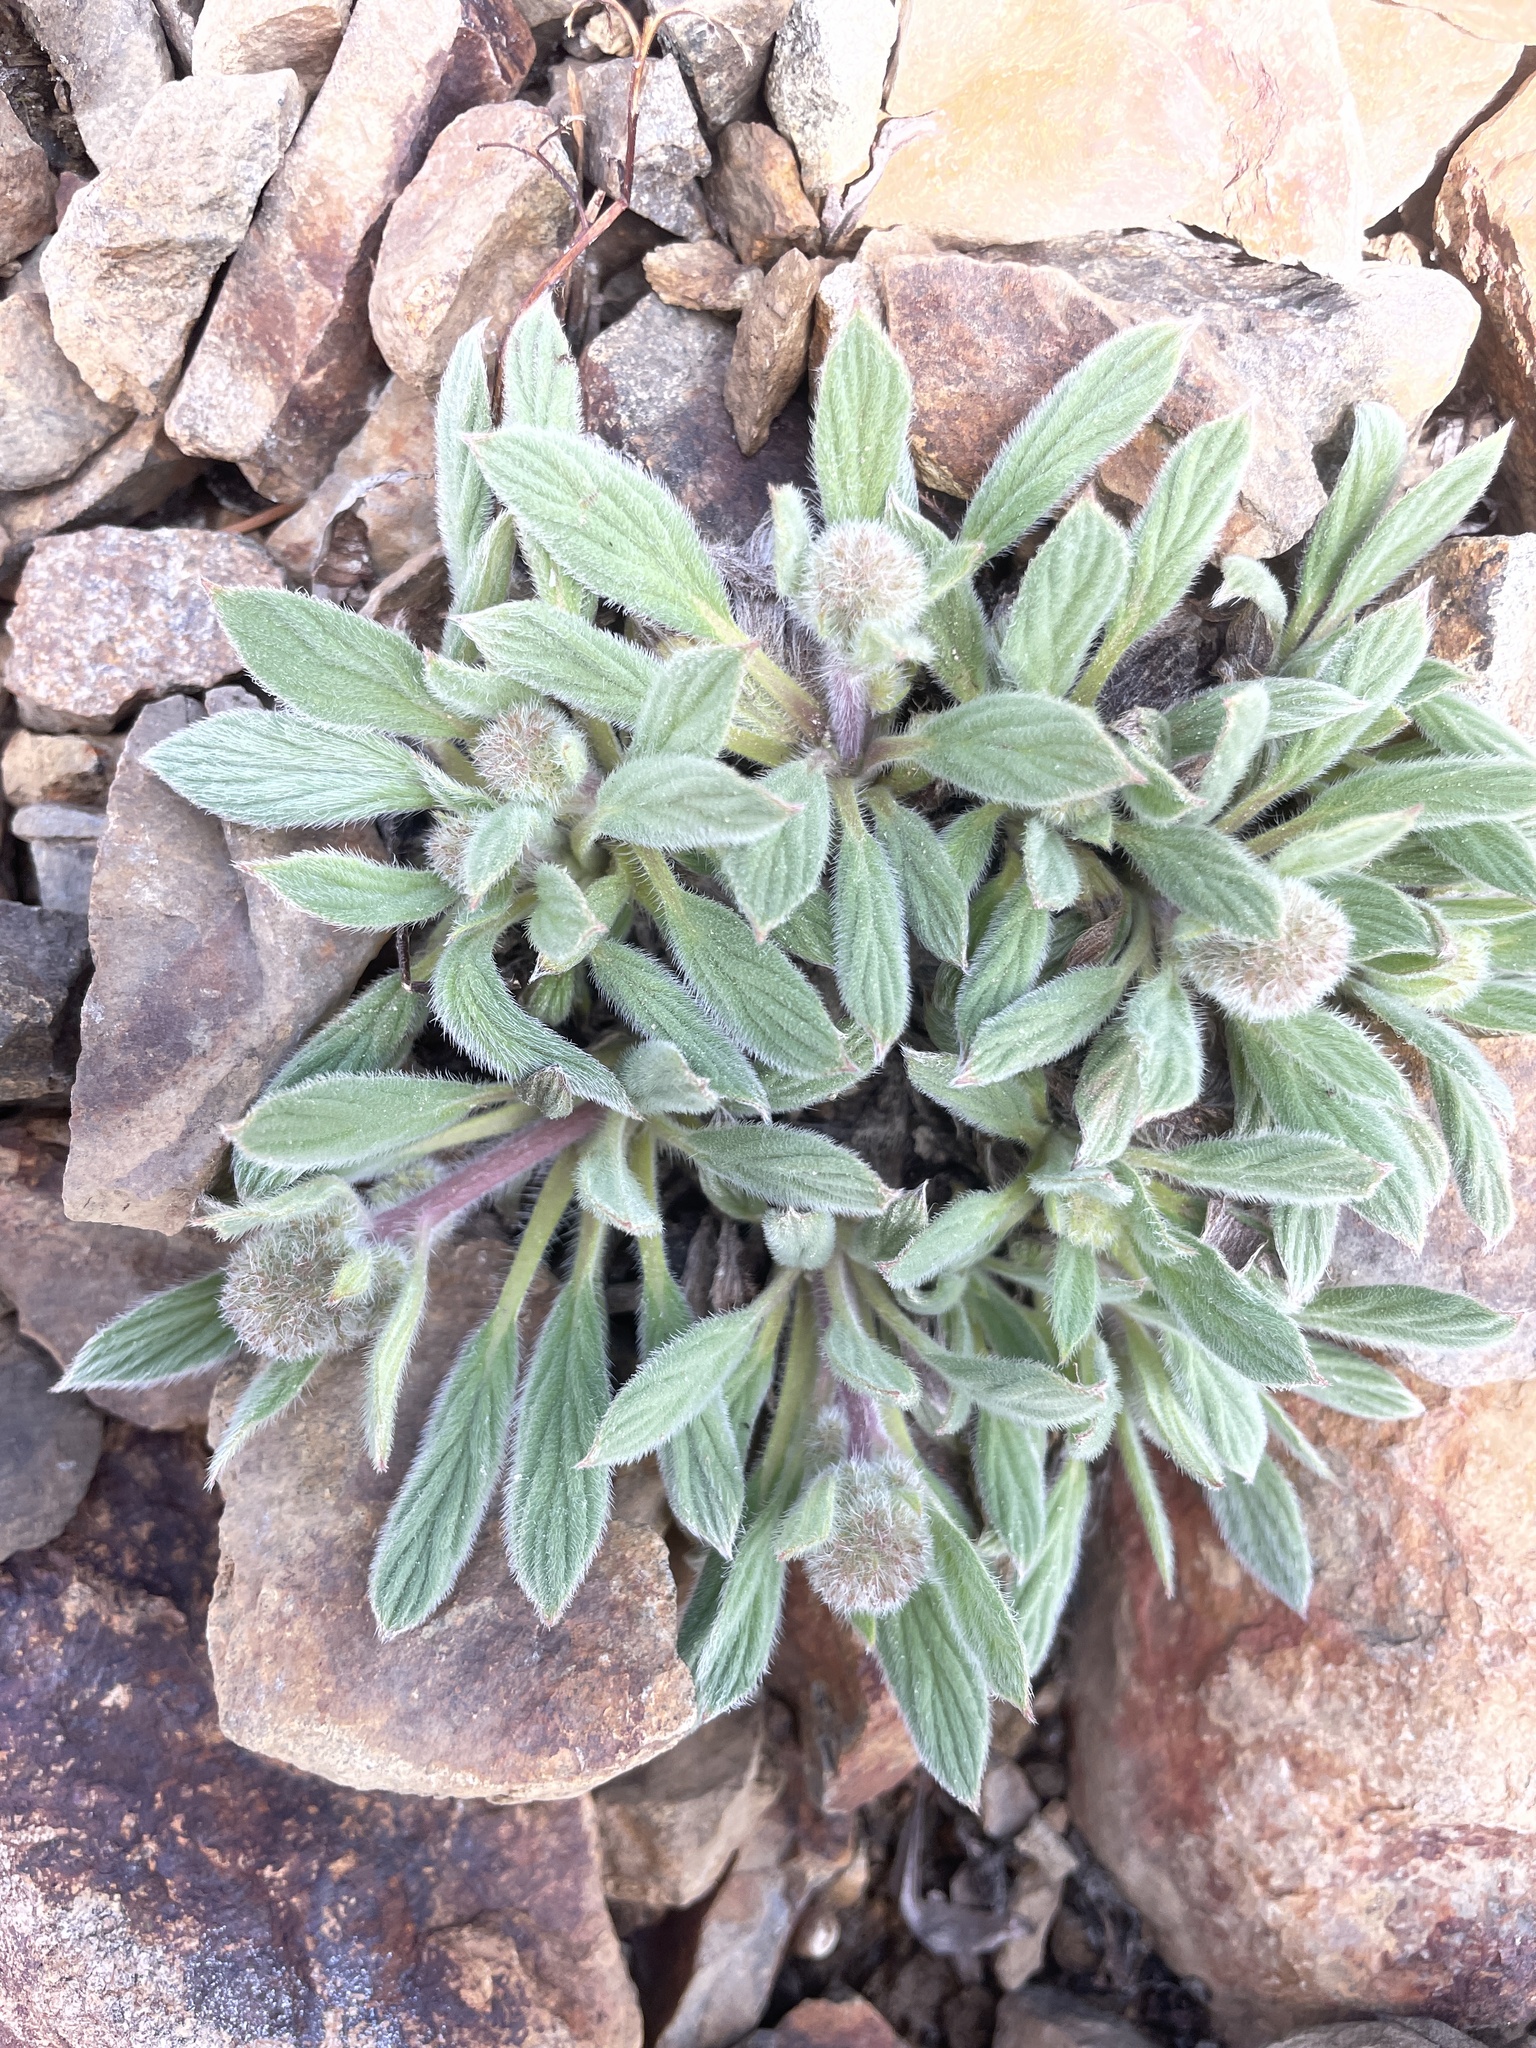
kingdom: Plantae
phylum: Tracheophyta
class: Magnoliopsida
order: Boraginales
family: Hydrophyllaceae
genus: Phacelia
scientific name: Phacelia hastata
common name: Silver-leaved phacelia
